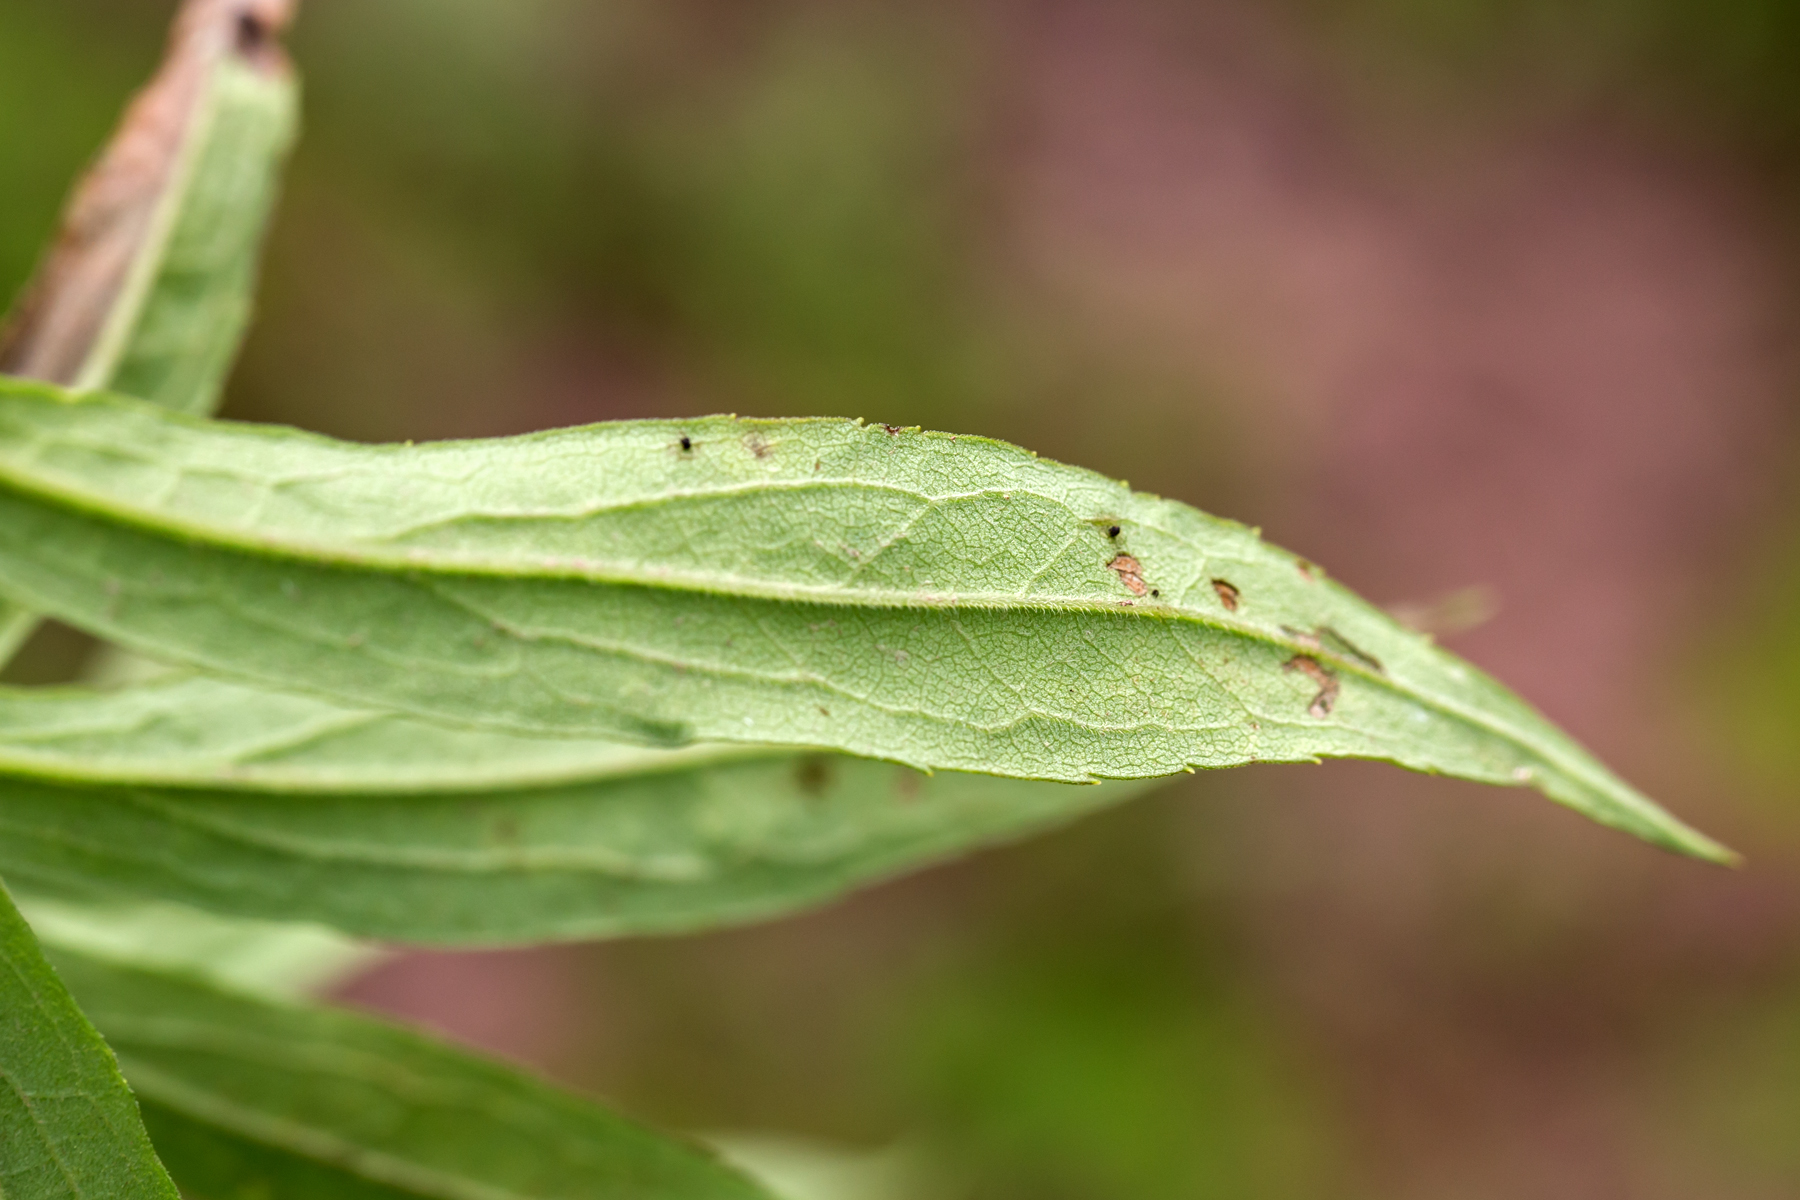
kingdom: Plantae
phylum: Tracheophyta
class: Magnoliopsida
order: Asterales
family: Asteraceae
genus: Solidago
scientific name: Solidago gigantea
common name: Giant goldenrod
